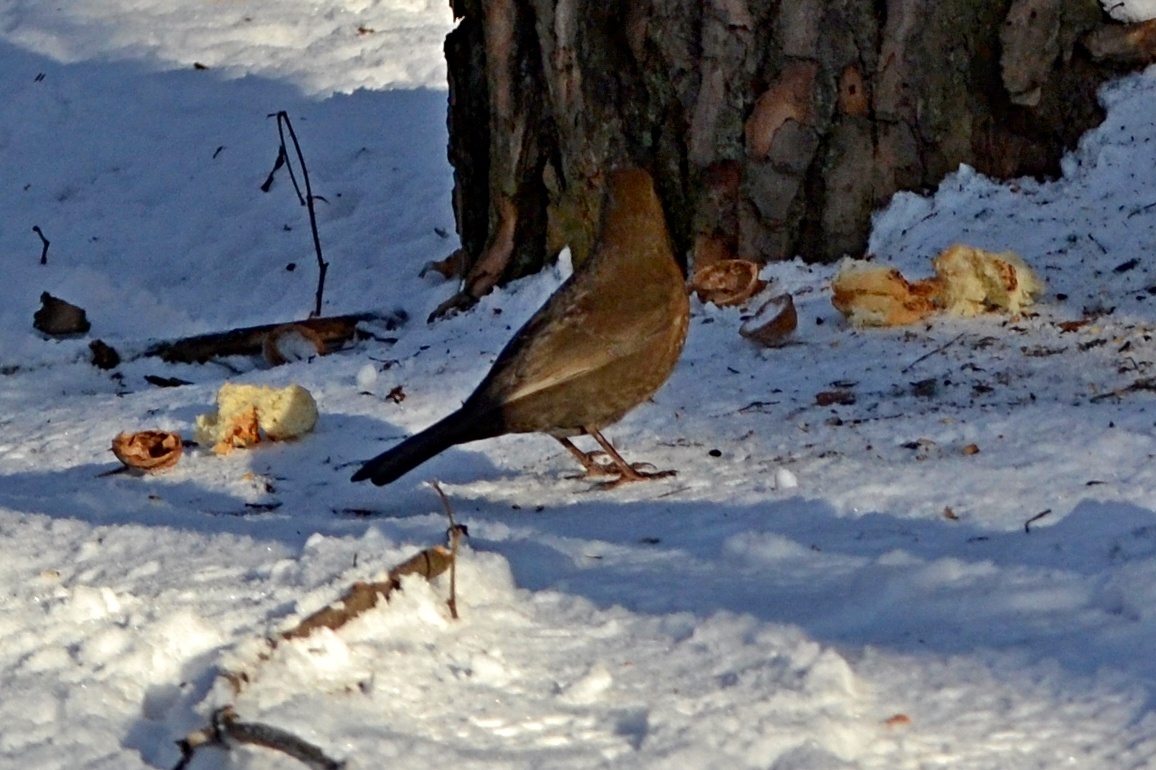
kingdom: Animalia
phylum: Chordata
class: Aves
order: Passeriformes
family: Turdidae
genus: Turdus
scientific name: Turdus merula
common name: Common blackbird
